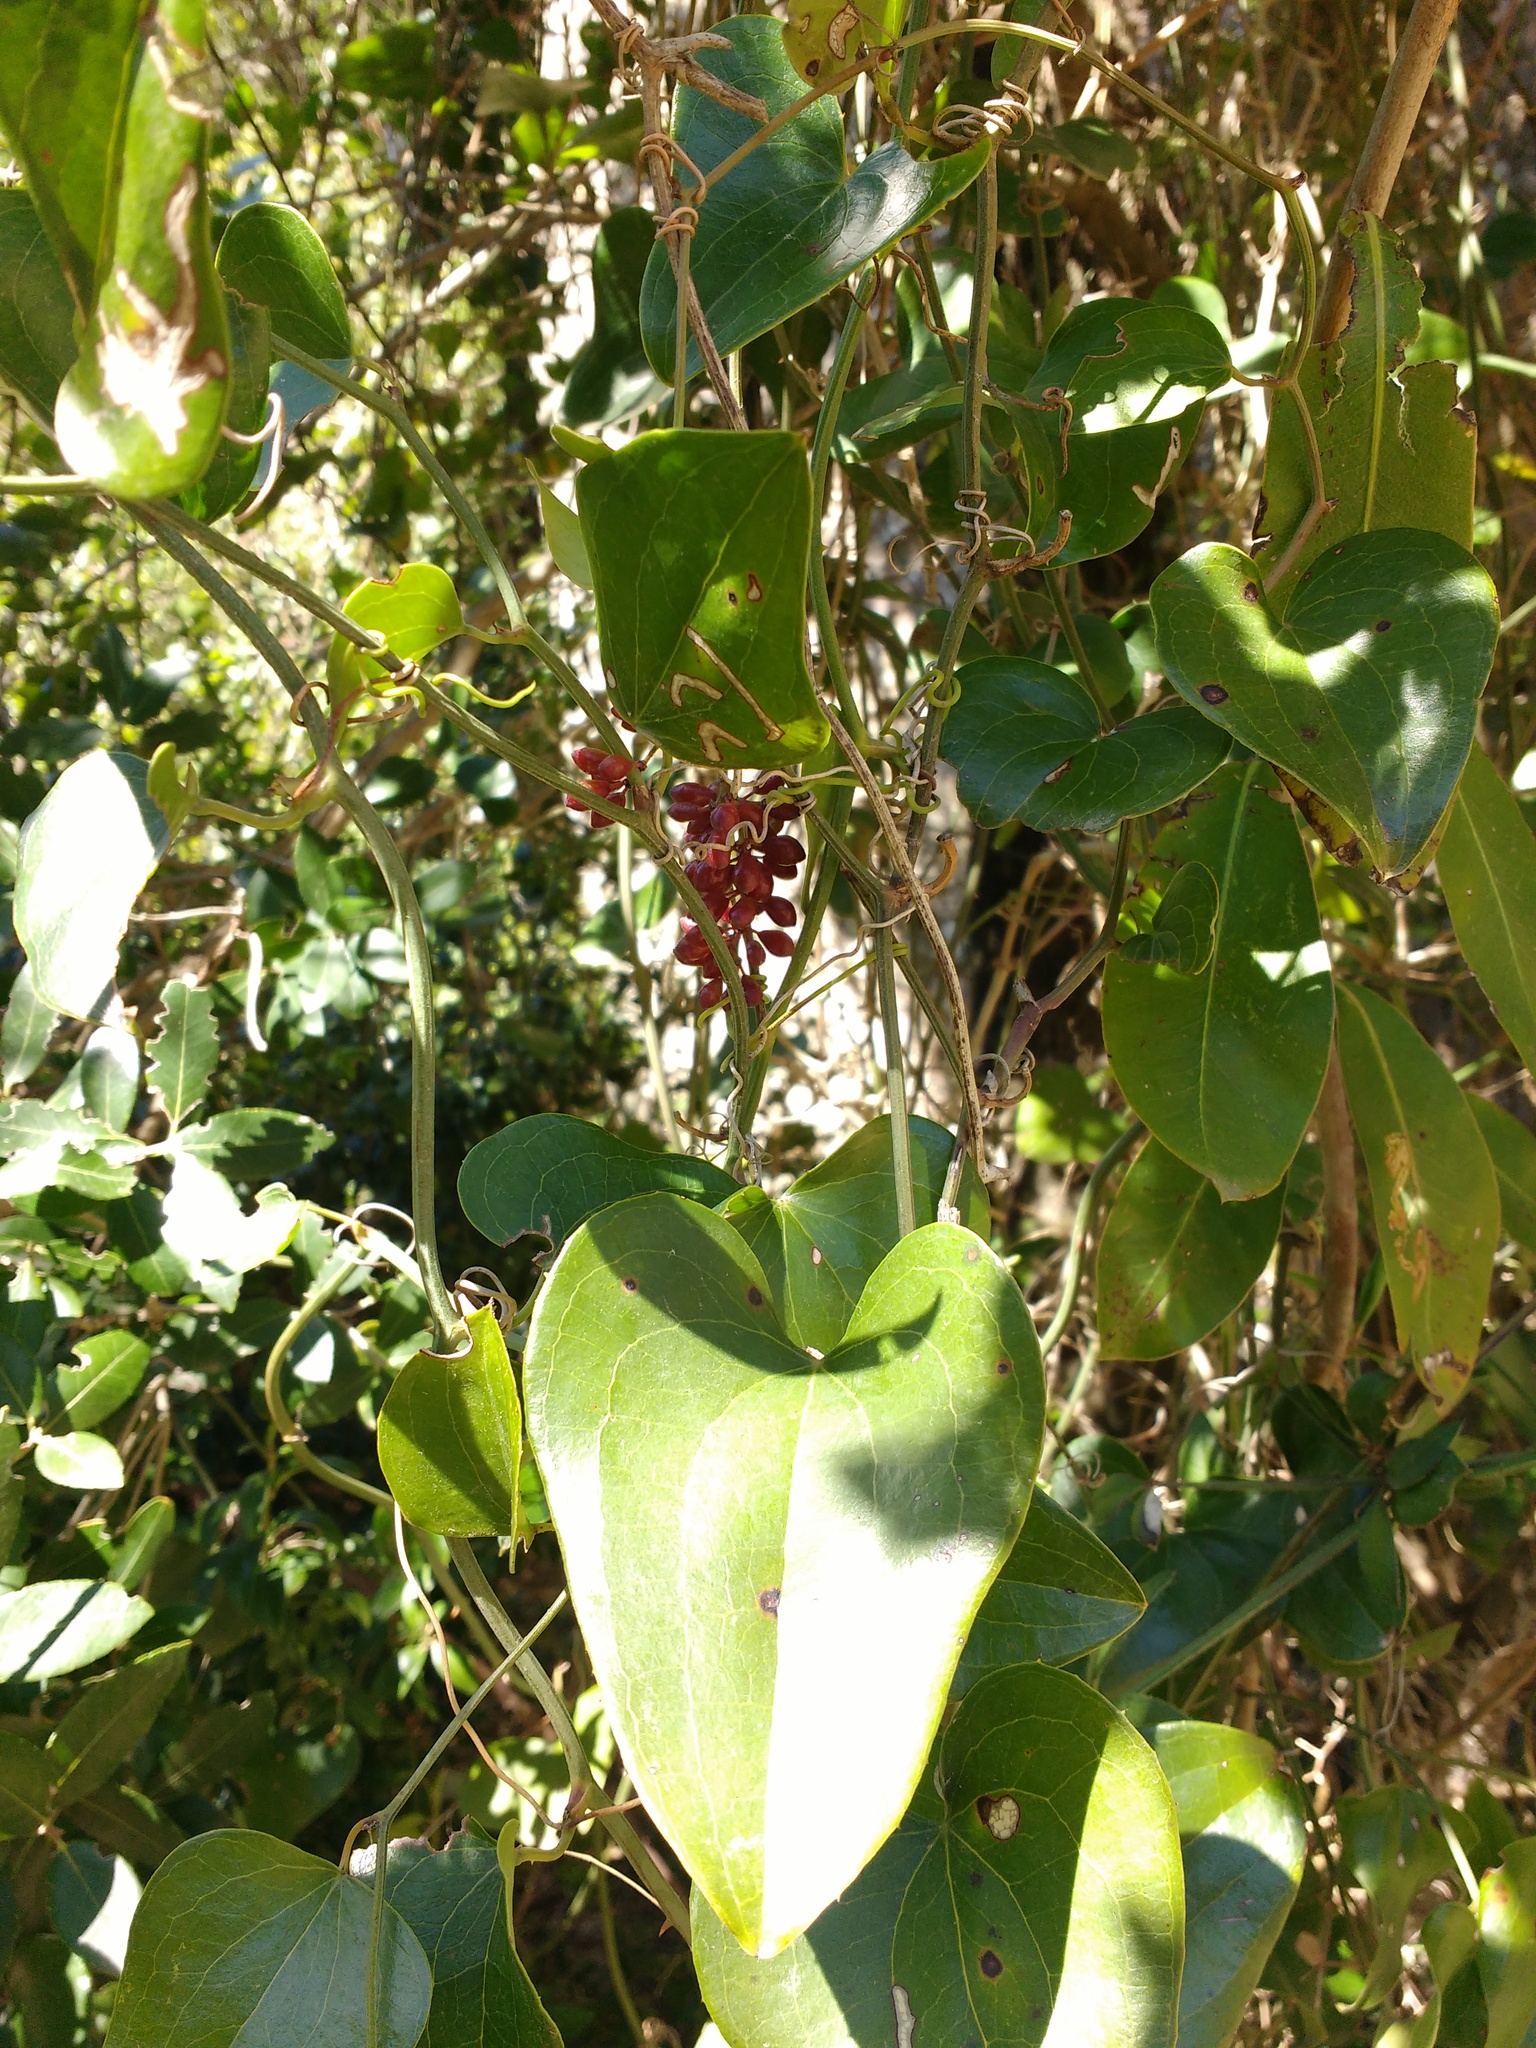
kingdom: Plantae
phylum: Tracheophyta
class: Liliopsida
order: Liliales
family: Smilacaceae
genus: Smilax
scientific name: Smilax aspera
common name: Common smilax
